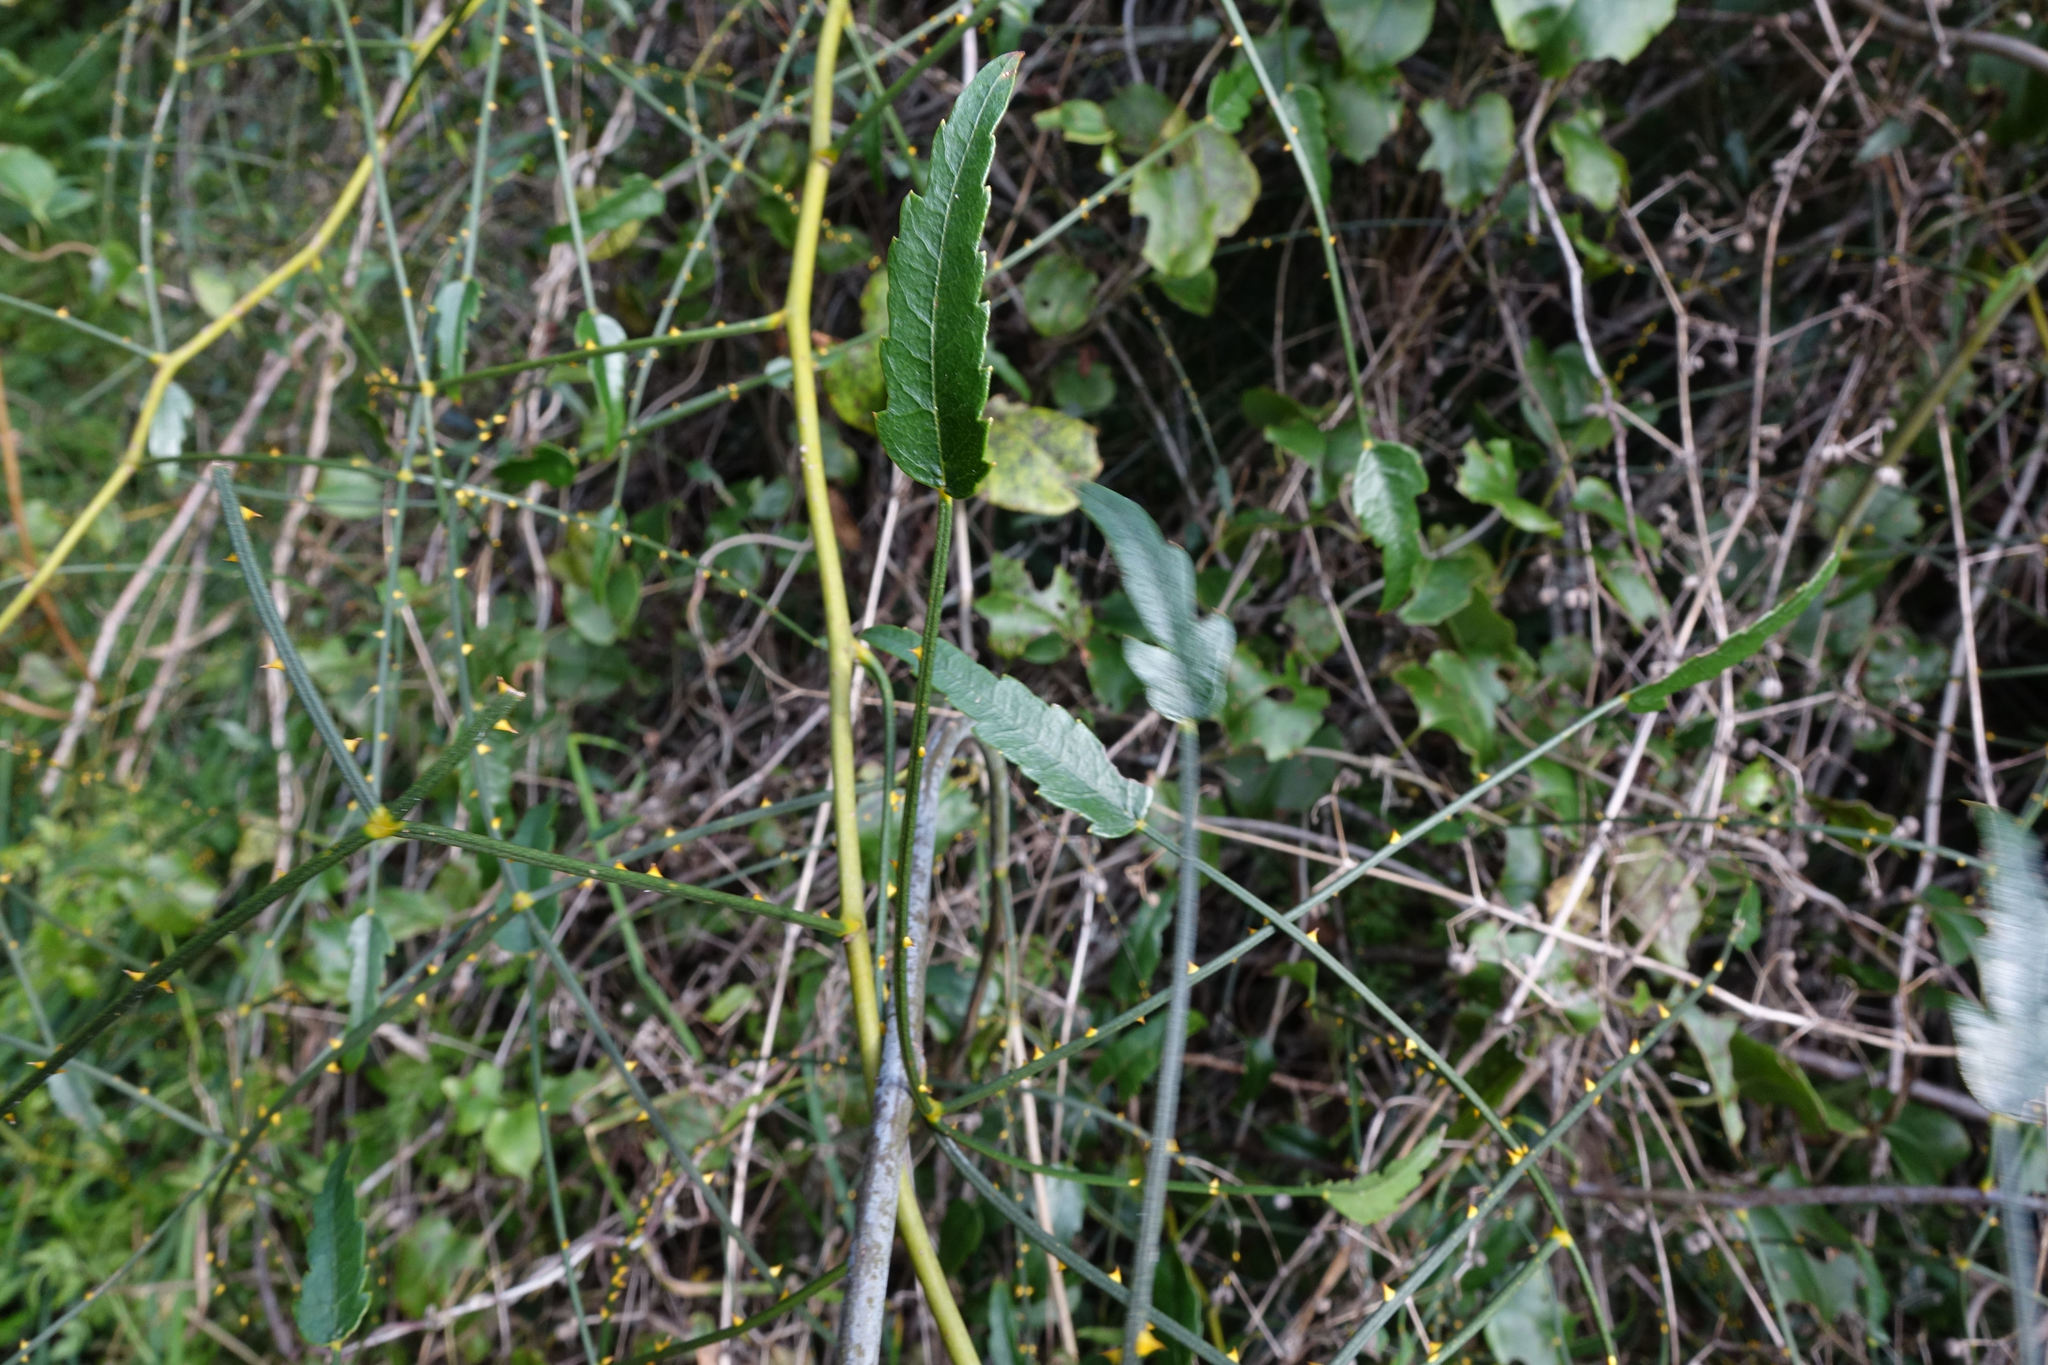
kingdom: Plantae
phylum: Tracheophyta
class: Magnoliopsida
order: Rosales
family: Rosaceae
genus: Rubus
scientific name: Rubus squarrosus
